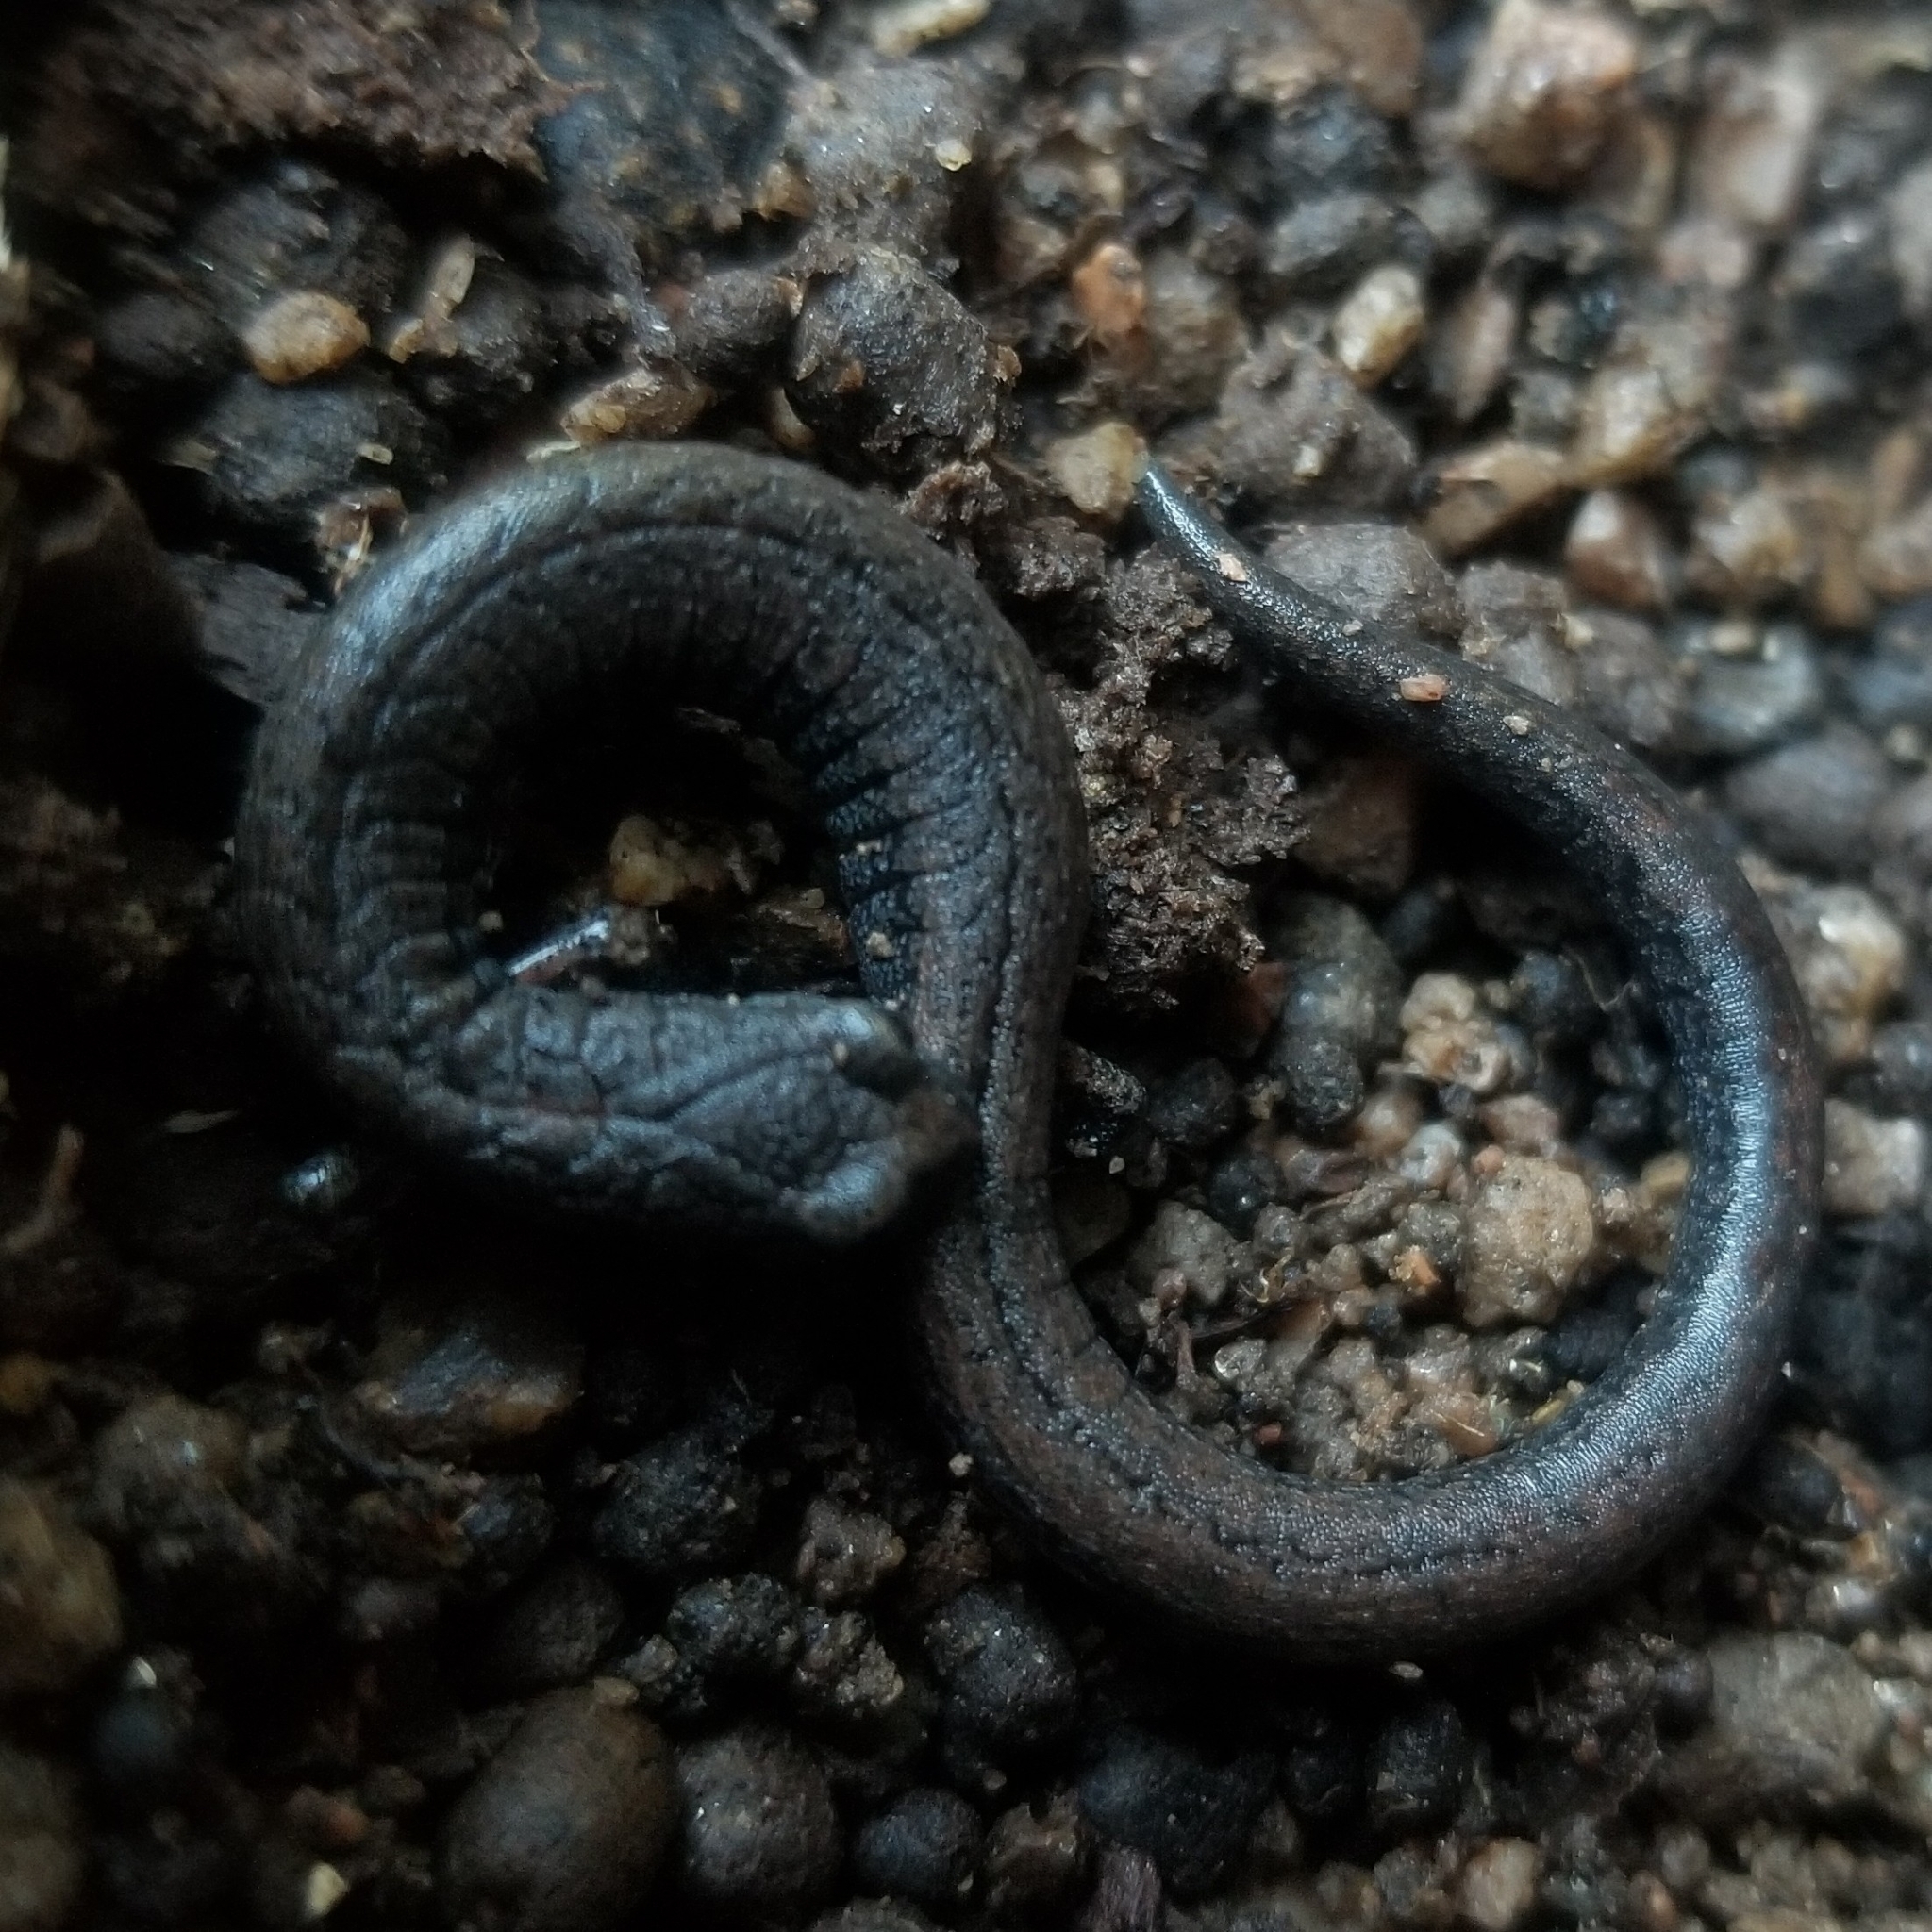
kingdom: Animalia
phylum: Chordata
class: Amphibia
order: Caudata
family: Plethodontidae
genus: Batrachoseps
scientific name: Batrachoseps gavilanensis
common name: Gabilan mountains slender salamander
